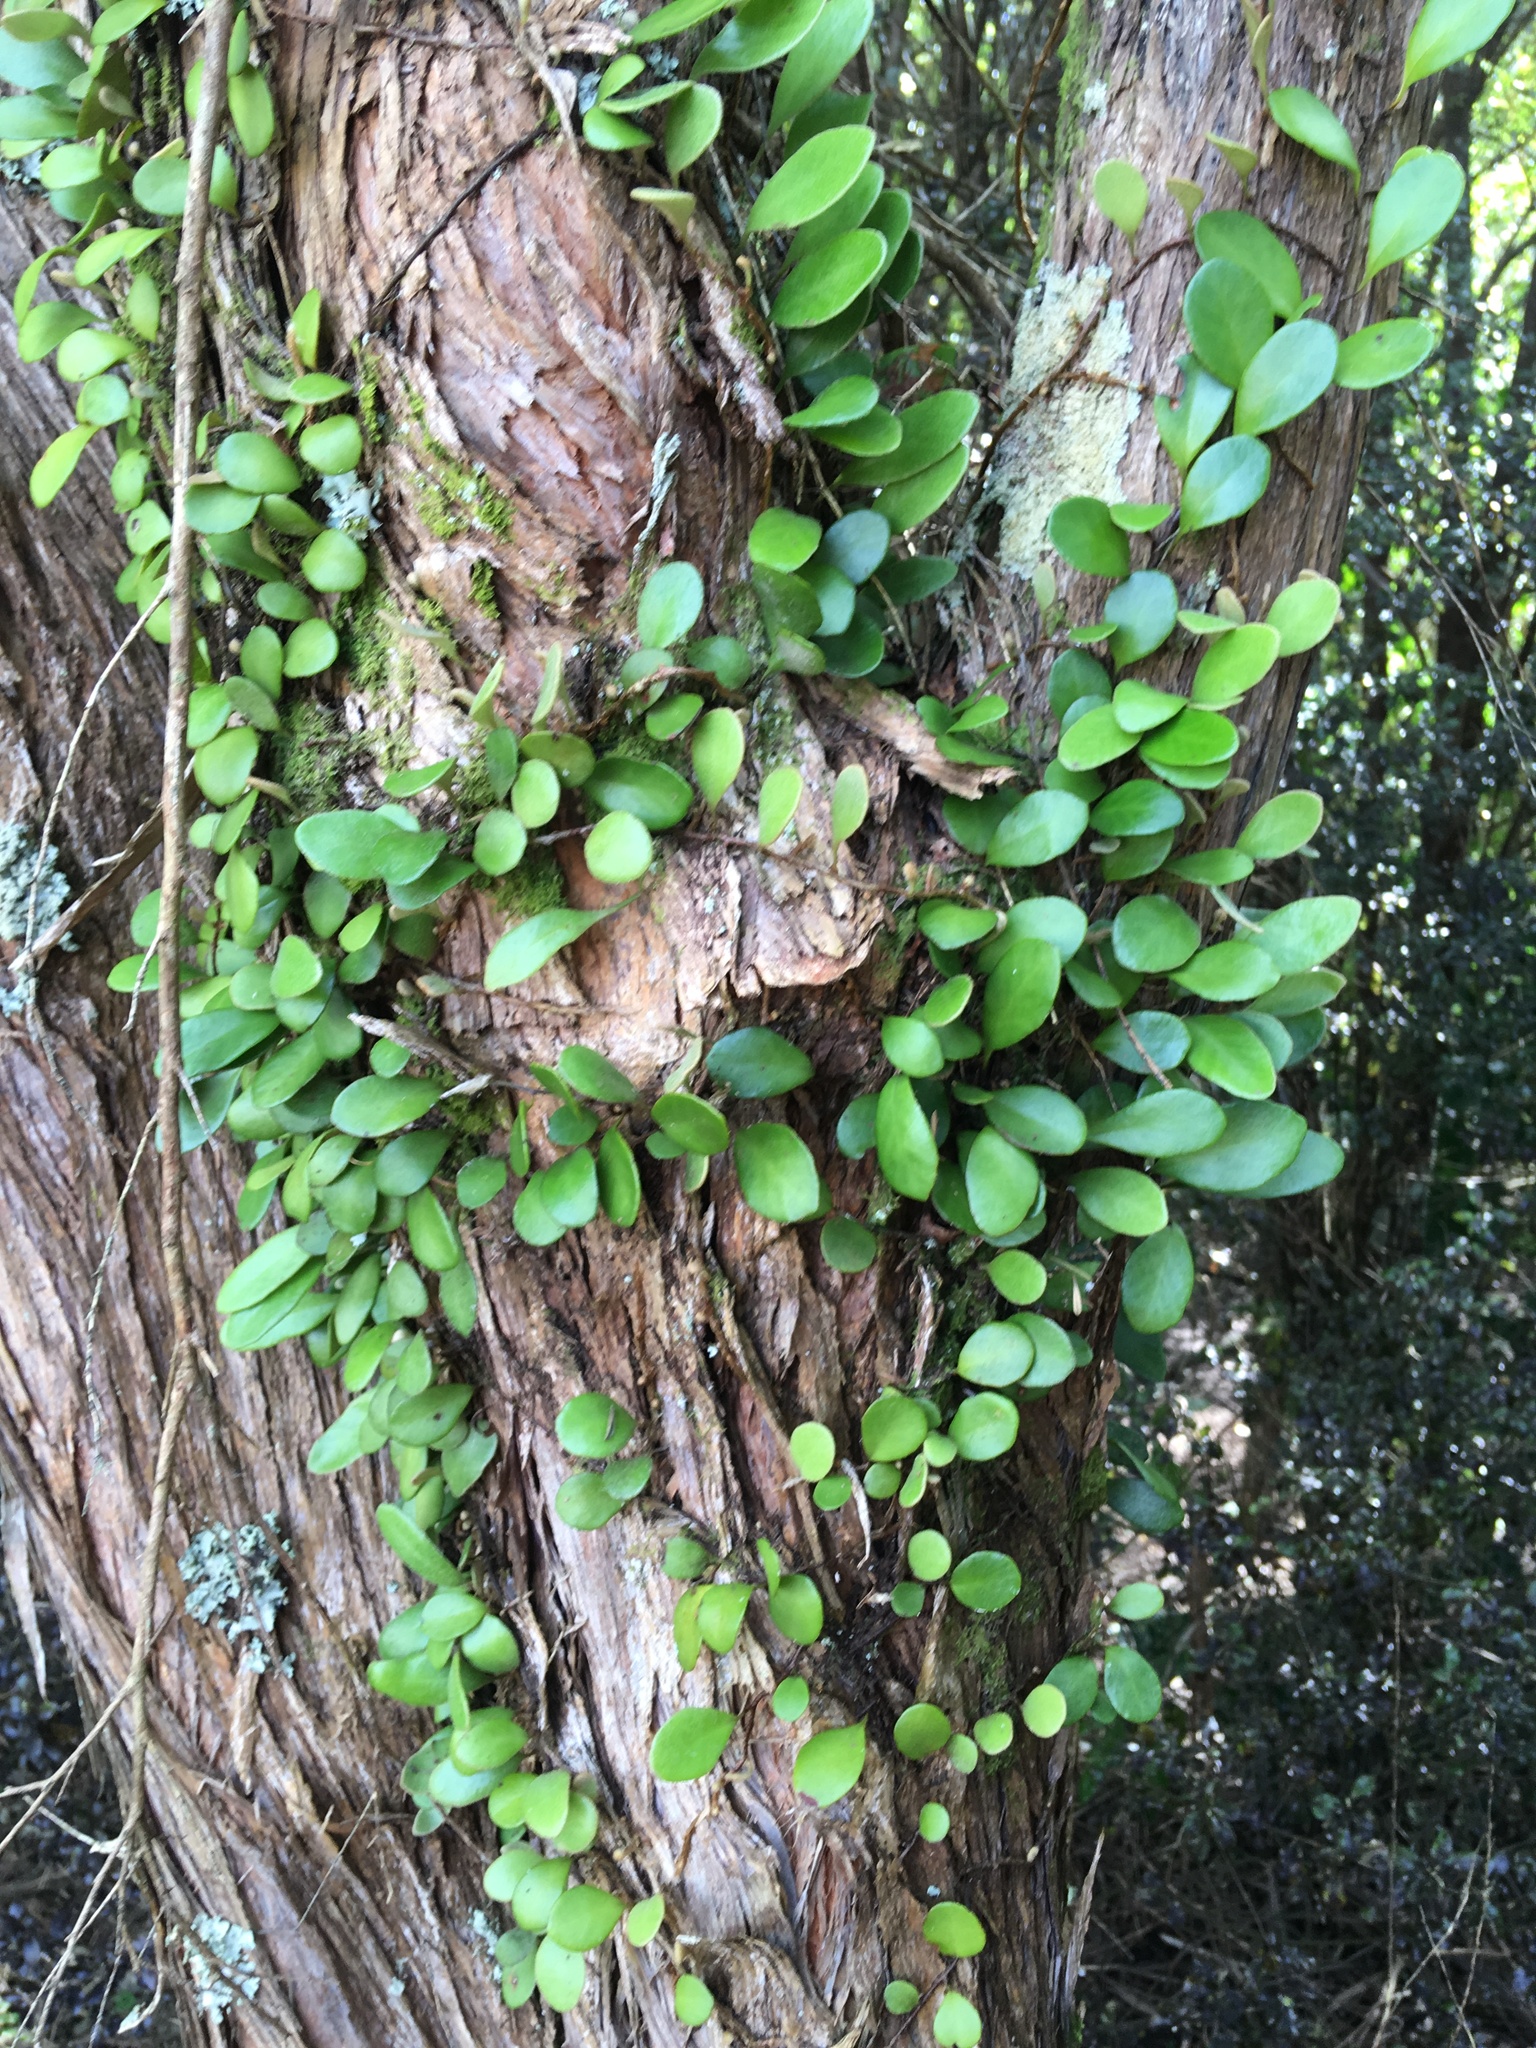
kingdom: Plantae
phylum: Tracheophyta
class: Polypodiopsida
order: Polypodiales
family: Polypodiaceae
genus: Pyrrosia
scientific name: Pyrrosia eleagnifolia
